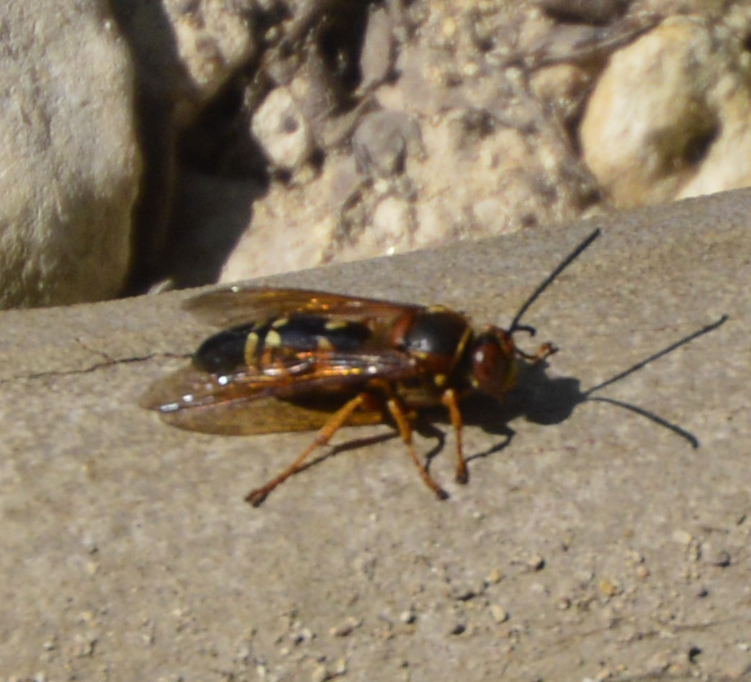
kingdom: Animalia
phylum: Arthropoda
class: Insecta
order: Hymenoptera
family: Crabronidae
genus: Sphecius
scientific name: Sphecius speciosus
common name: Cicada killer
